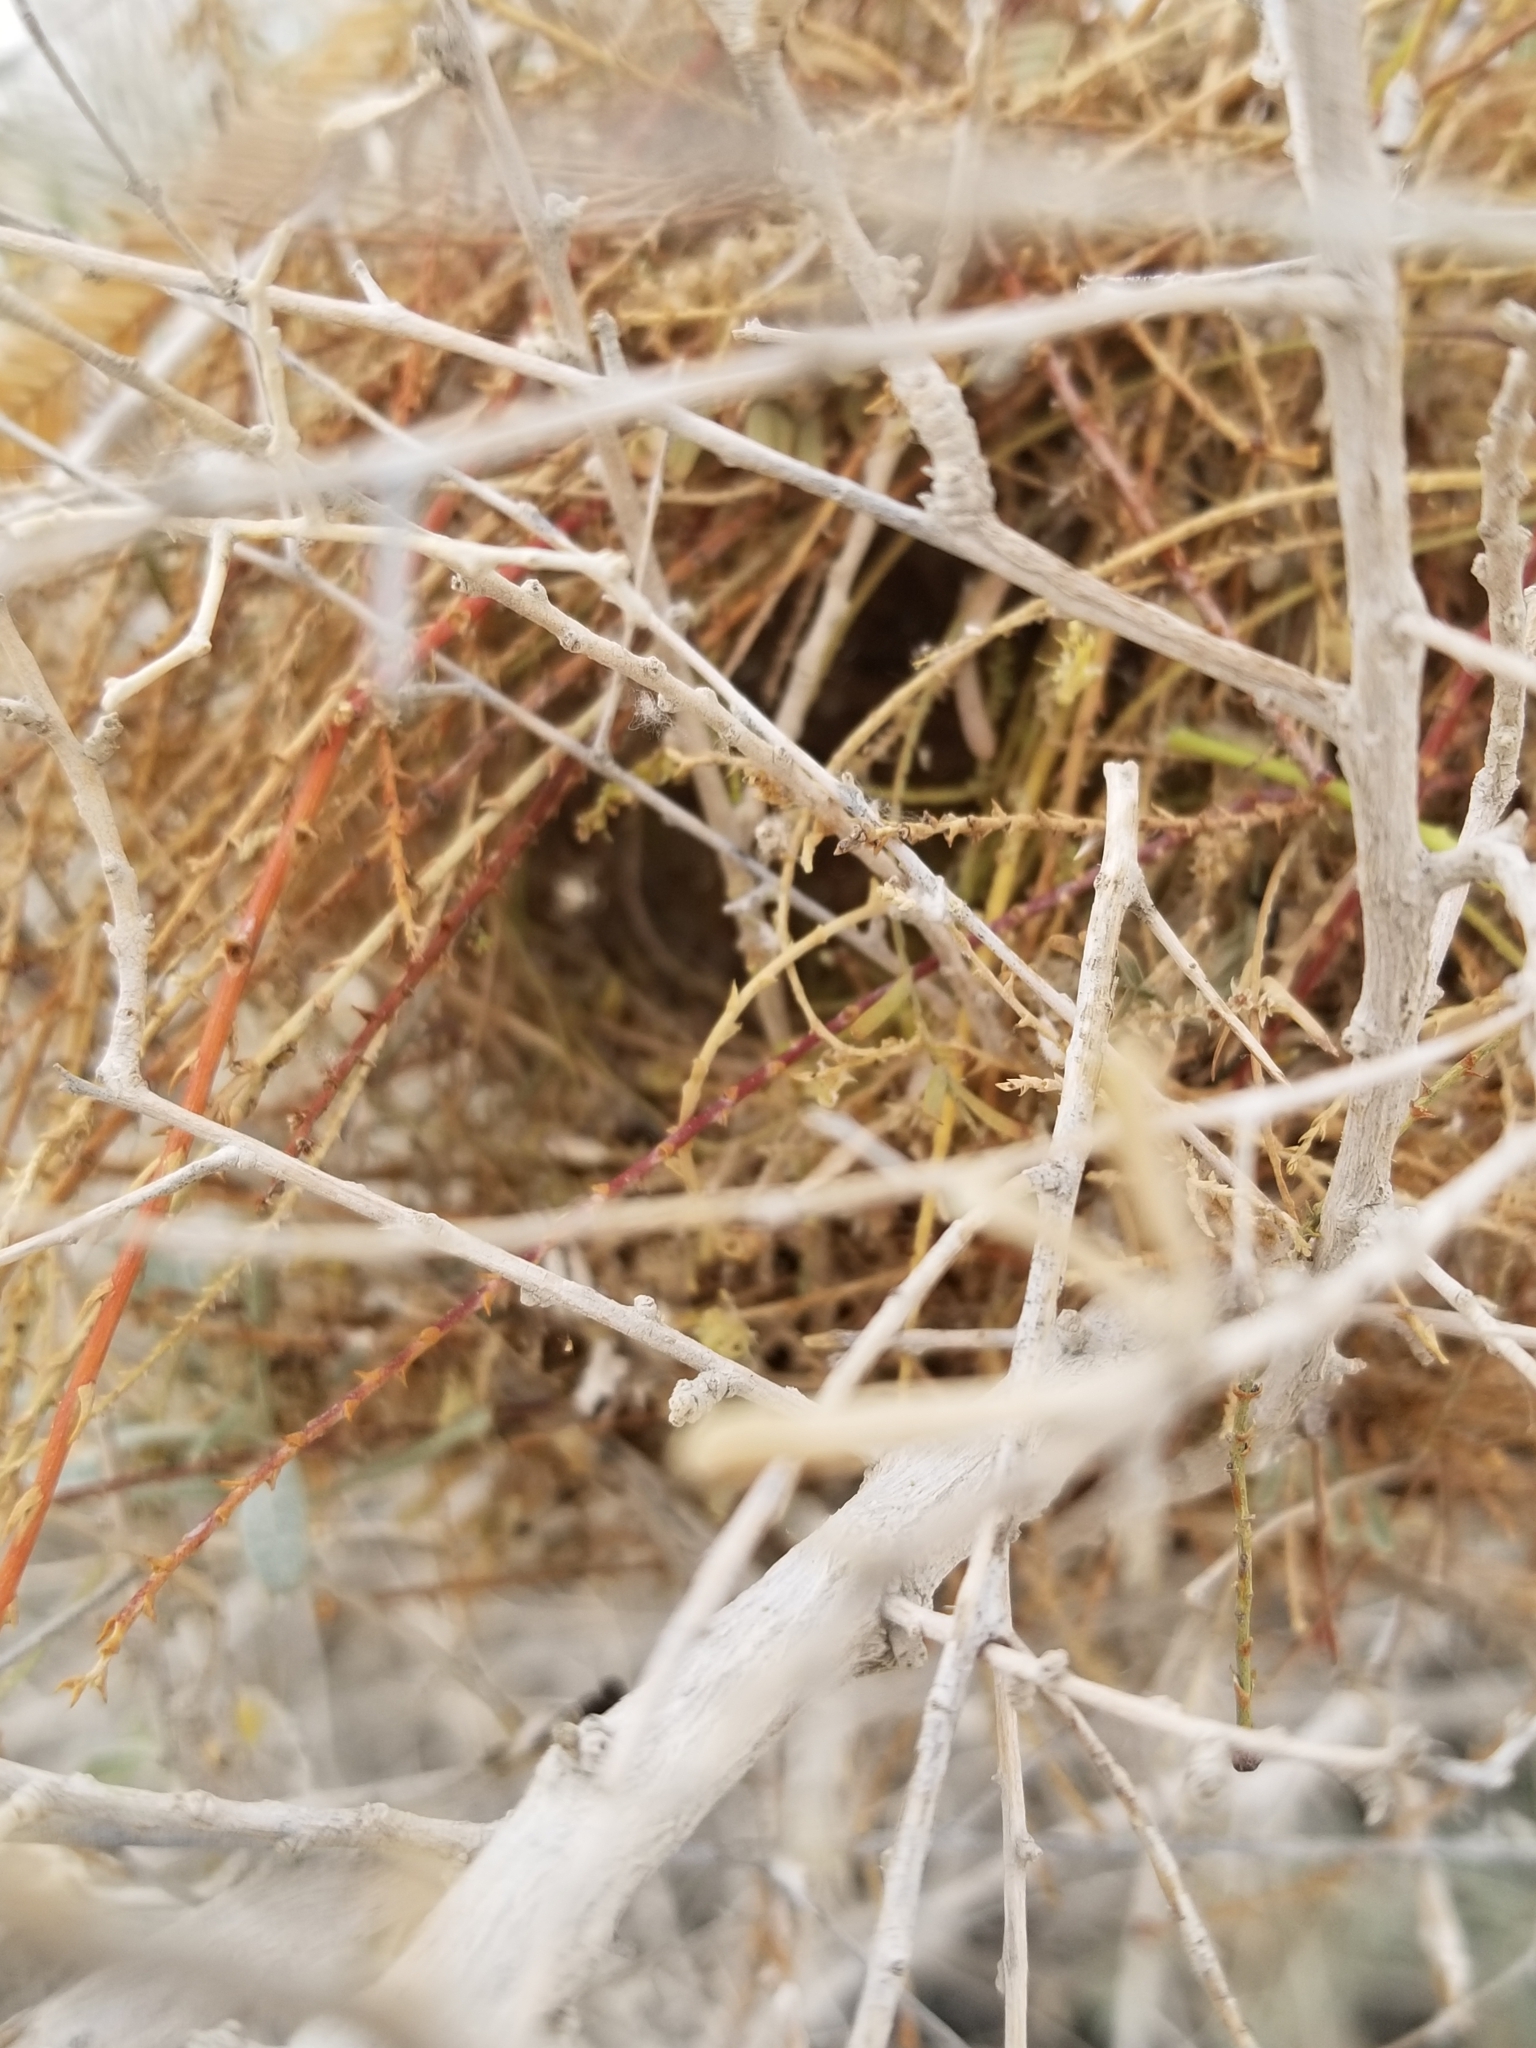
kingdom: Animalia
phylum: Chordata
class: Aves
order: Passeriformes
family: Remizidae
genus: Auriparus
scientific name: Auriparus flaviceps
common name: Verdin
